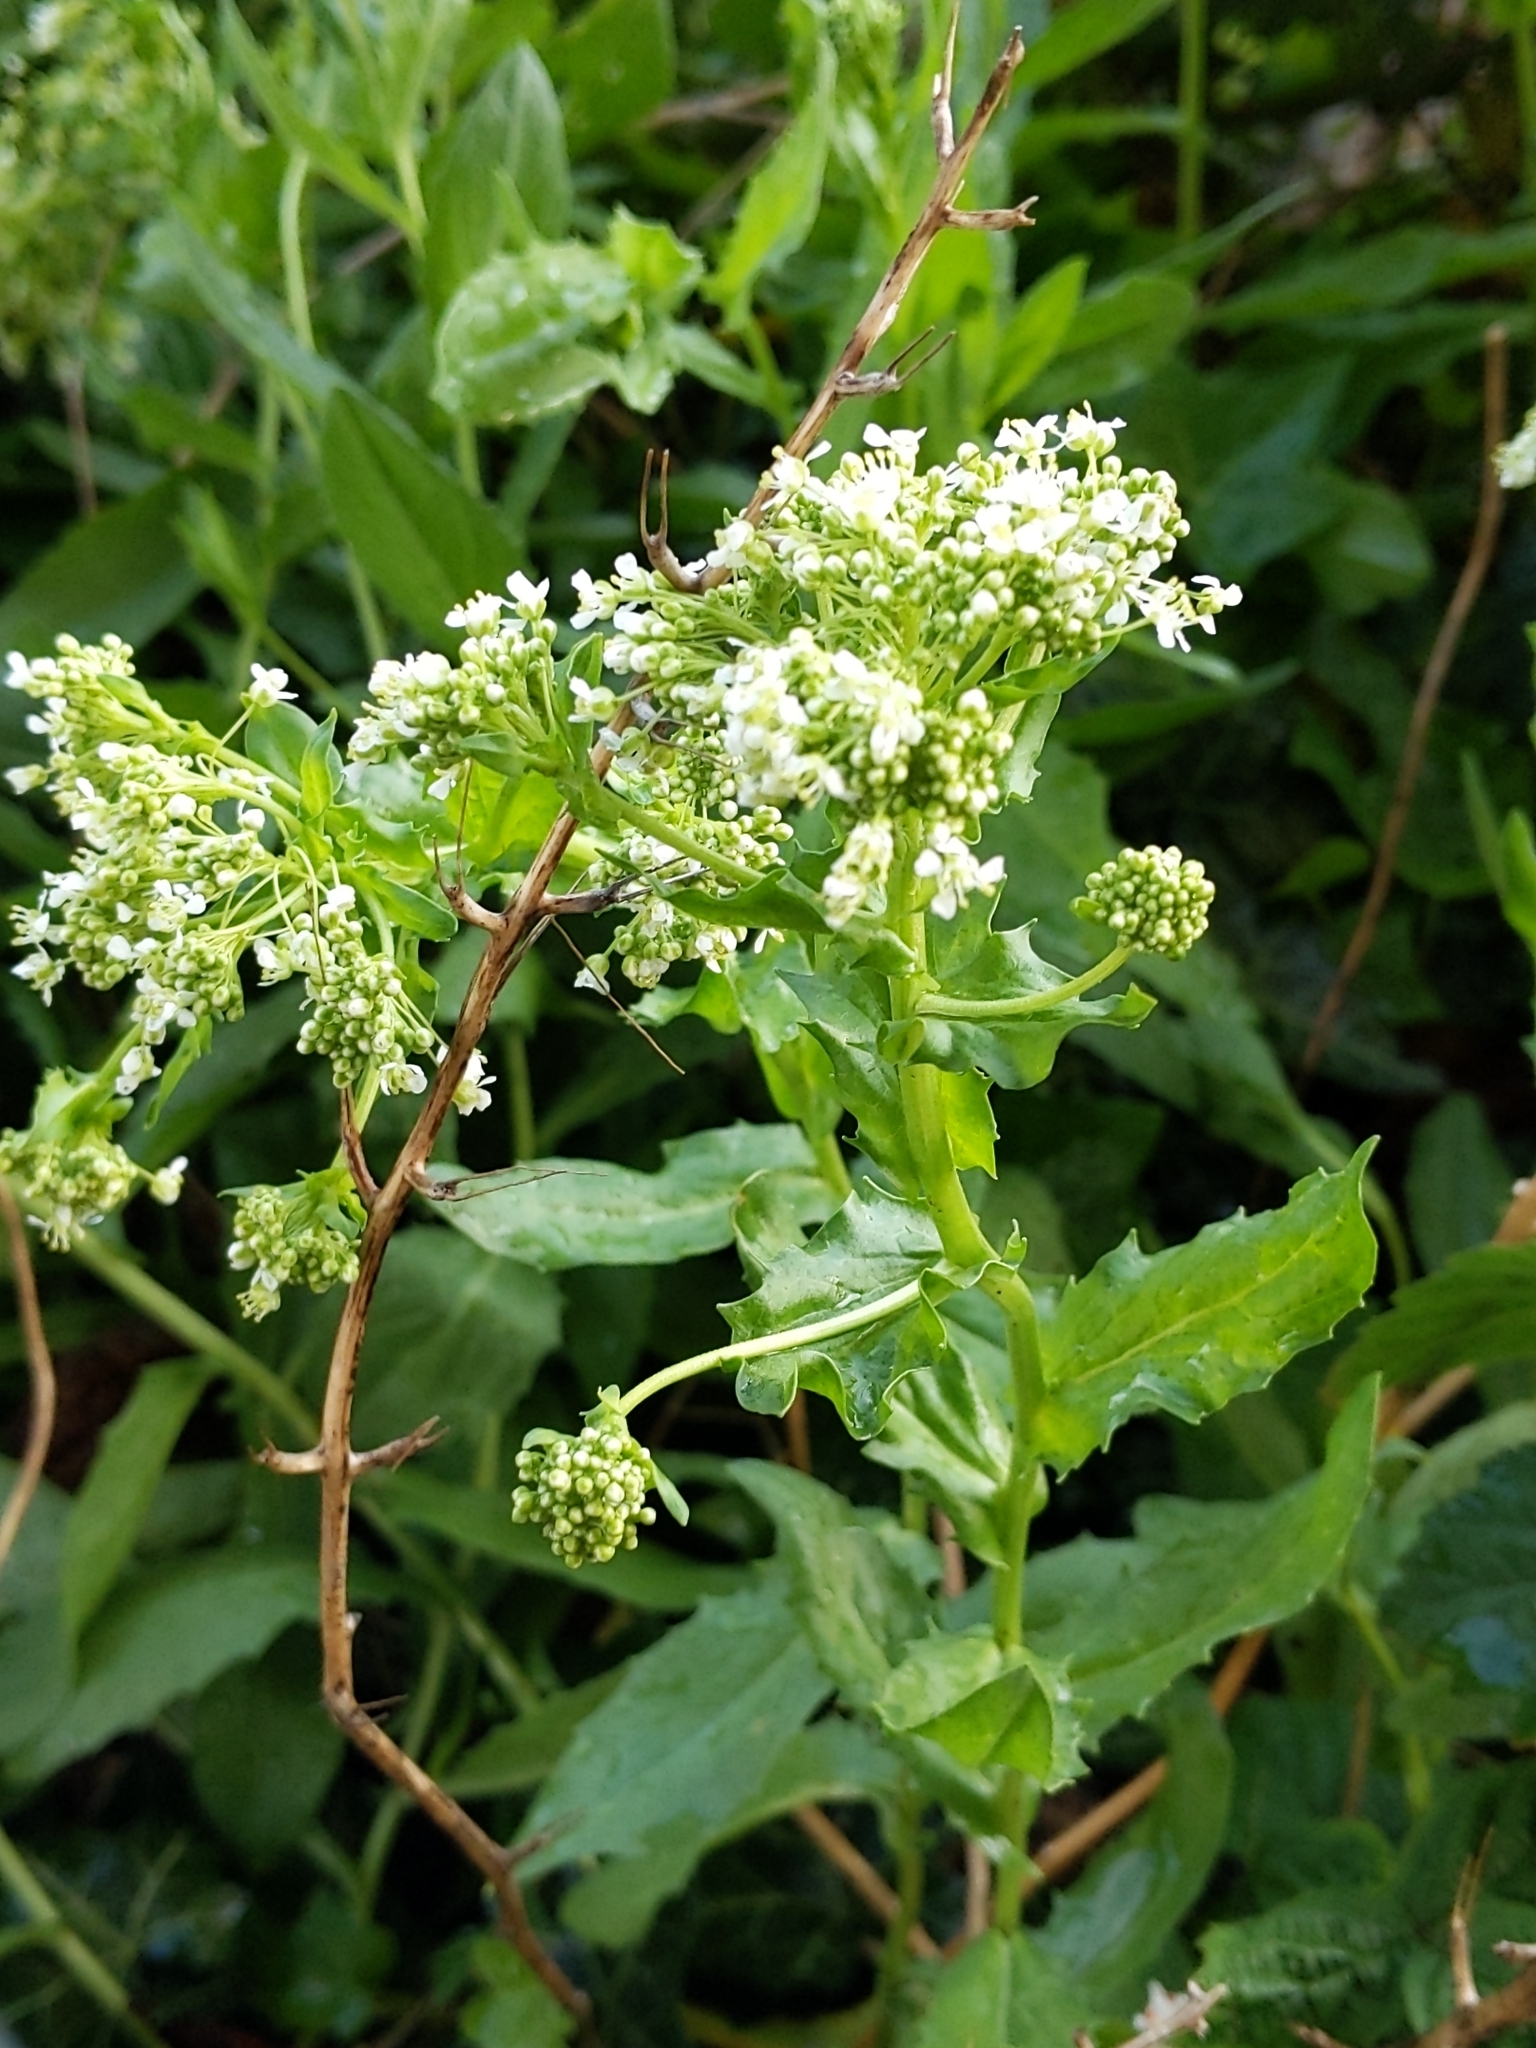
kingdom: Plantae
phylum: Tracheophyta
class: Magnoliopsida
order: Brassicales
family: Brassicaceae
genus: Lepidium
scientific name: Lepidium draba
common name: Hoary cress
